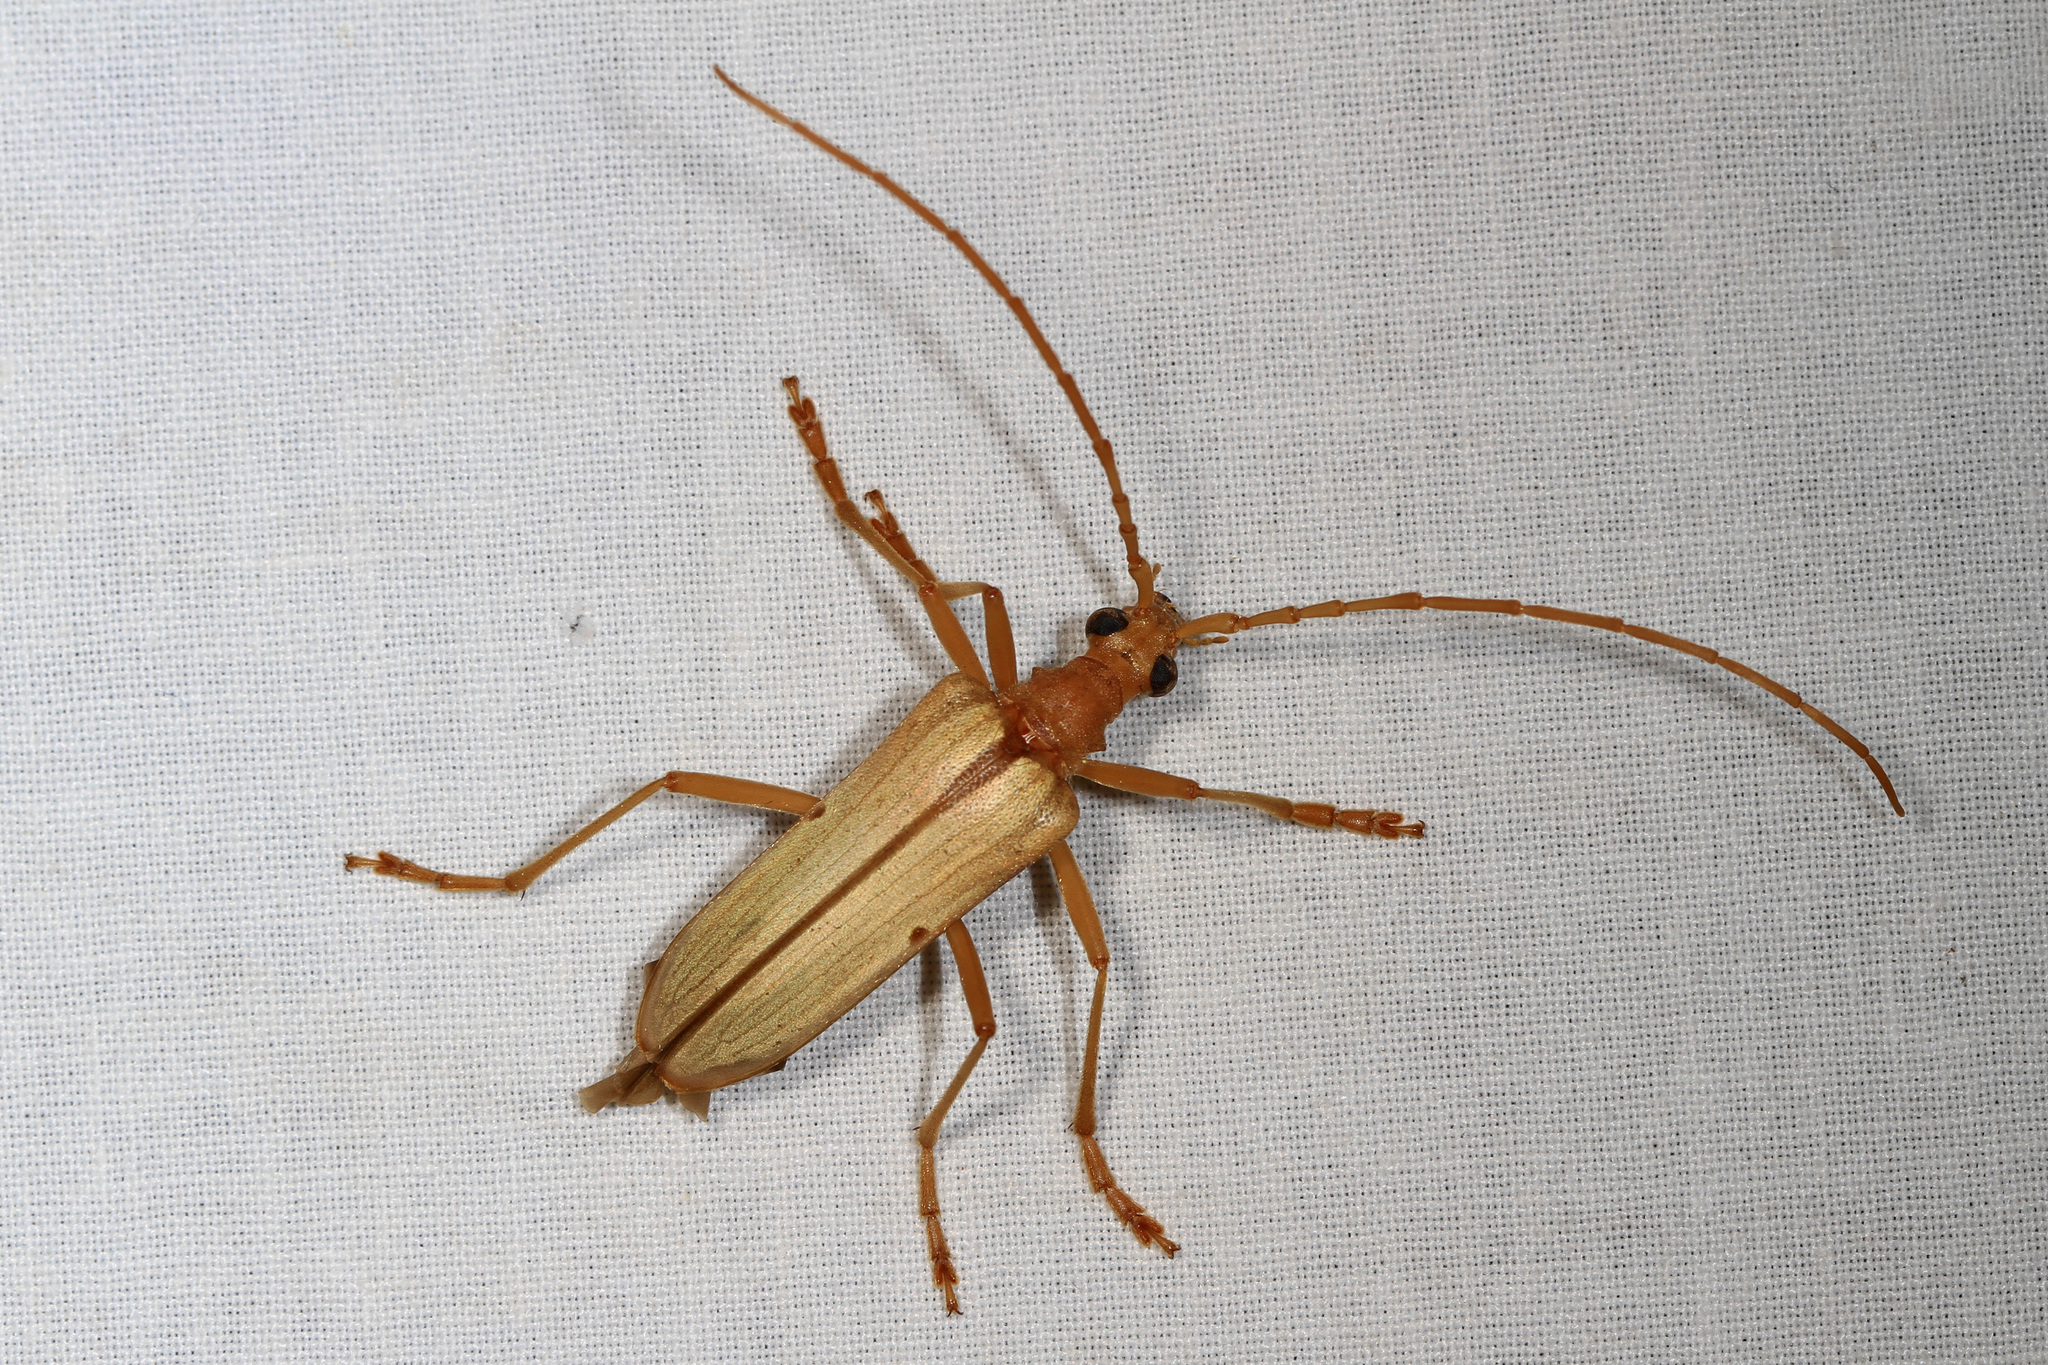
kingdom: Animalia
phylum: Arthropoda
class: Insecta
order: Coleoptera
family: Cerambycidae
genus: Centrodera
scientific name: Centrodera spurca
